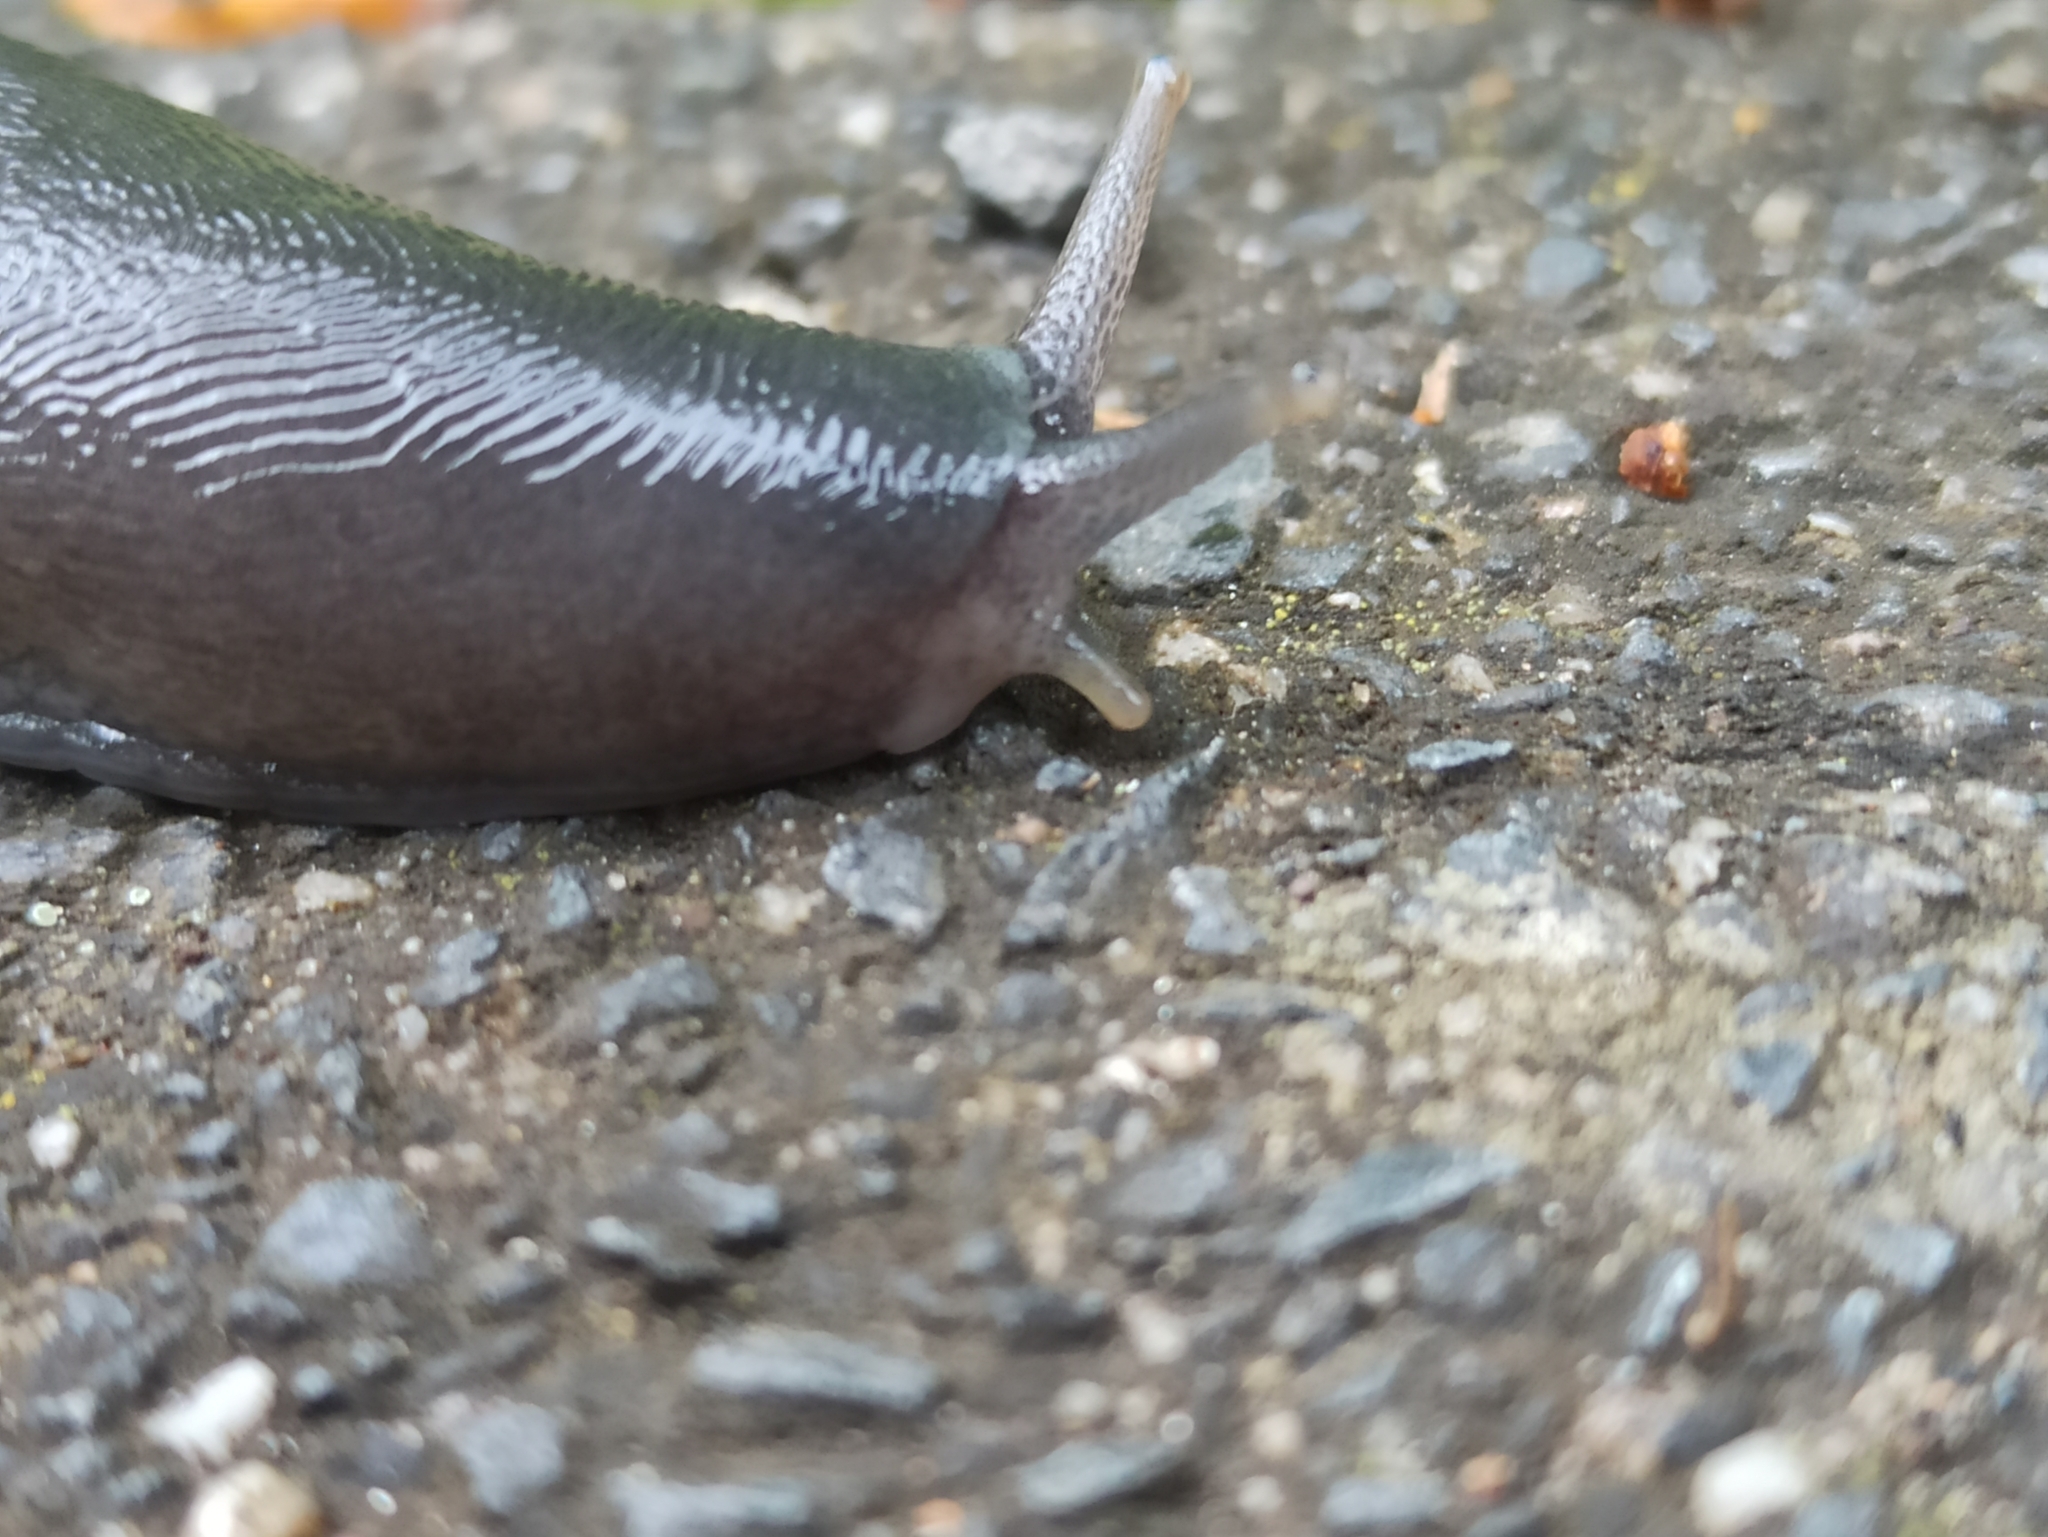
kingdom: Animalia
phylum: Mollusca
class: Gastropoda
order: Stylommatophora
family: Limacidae
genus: Limax
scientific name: Limax cinereoniger
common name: Ash-black slug
